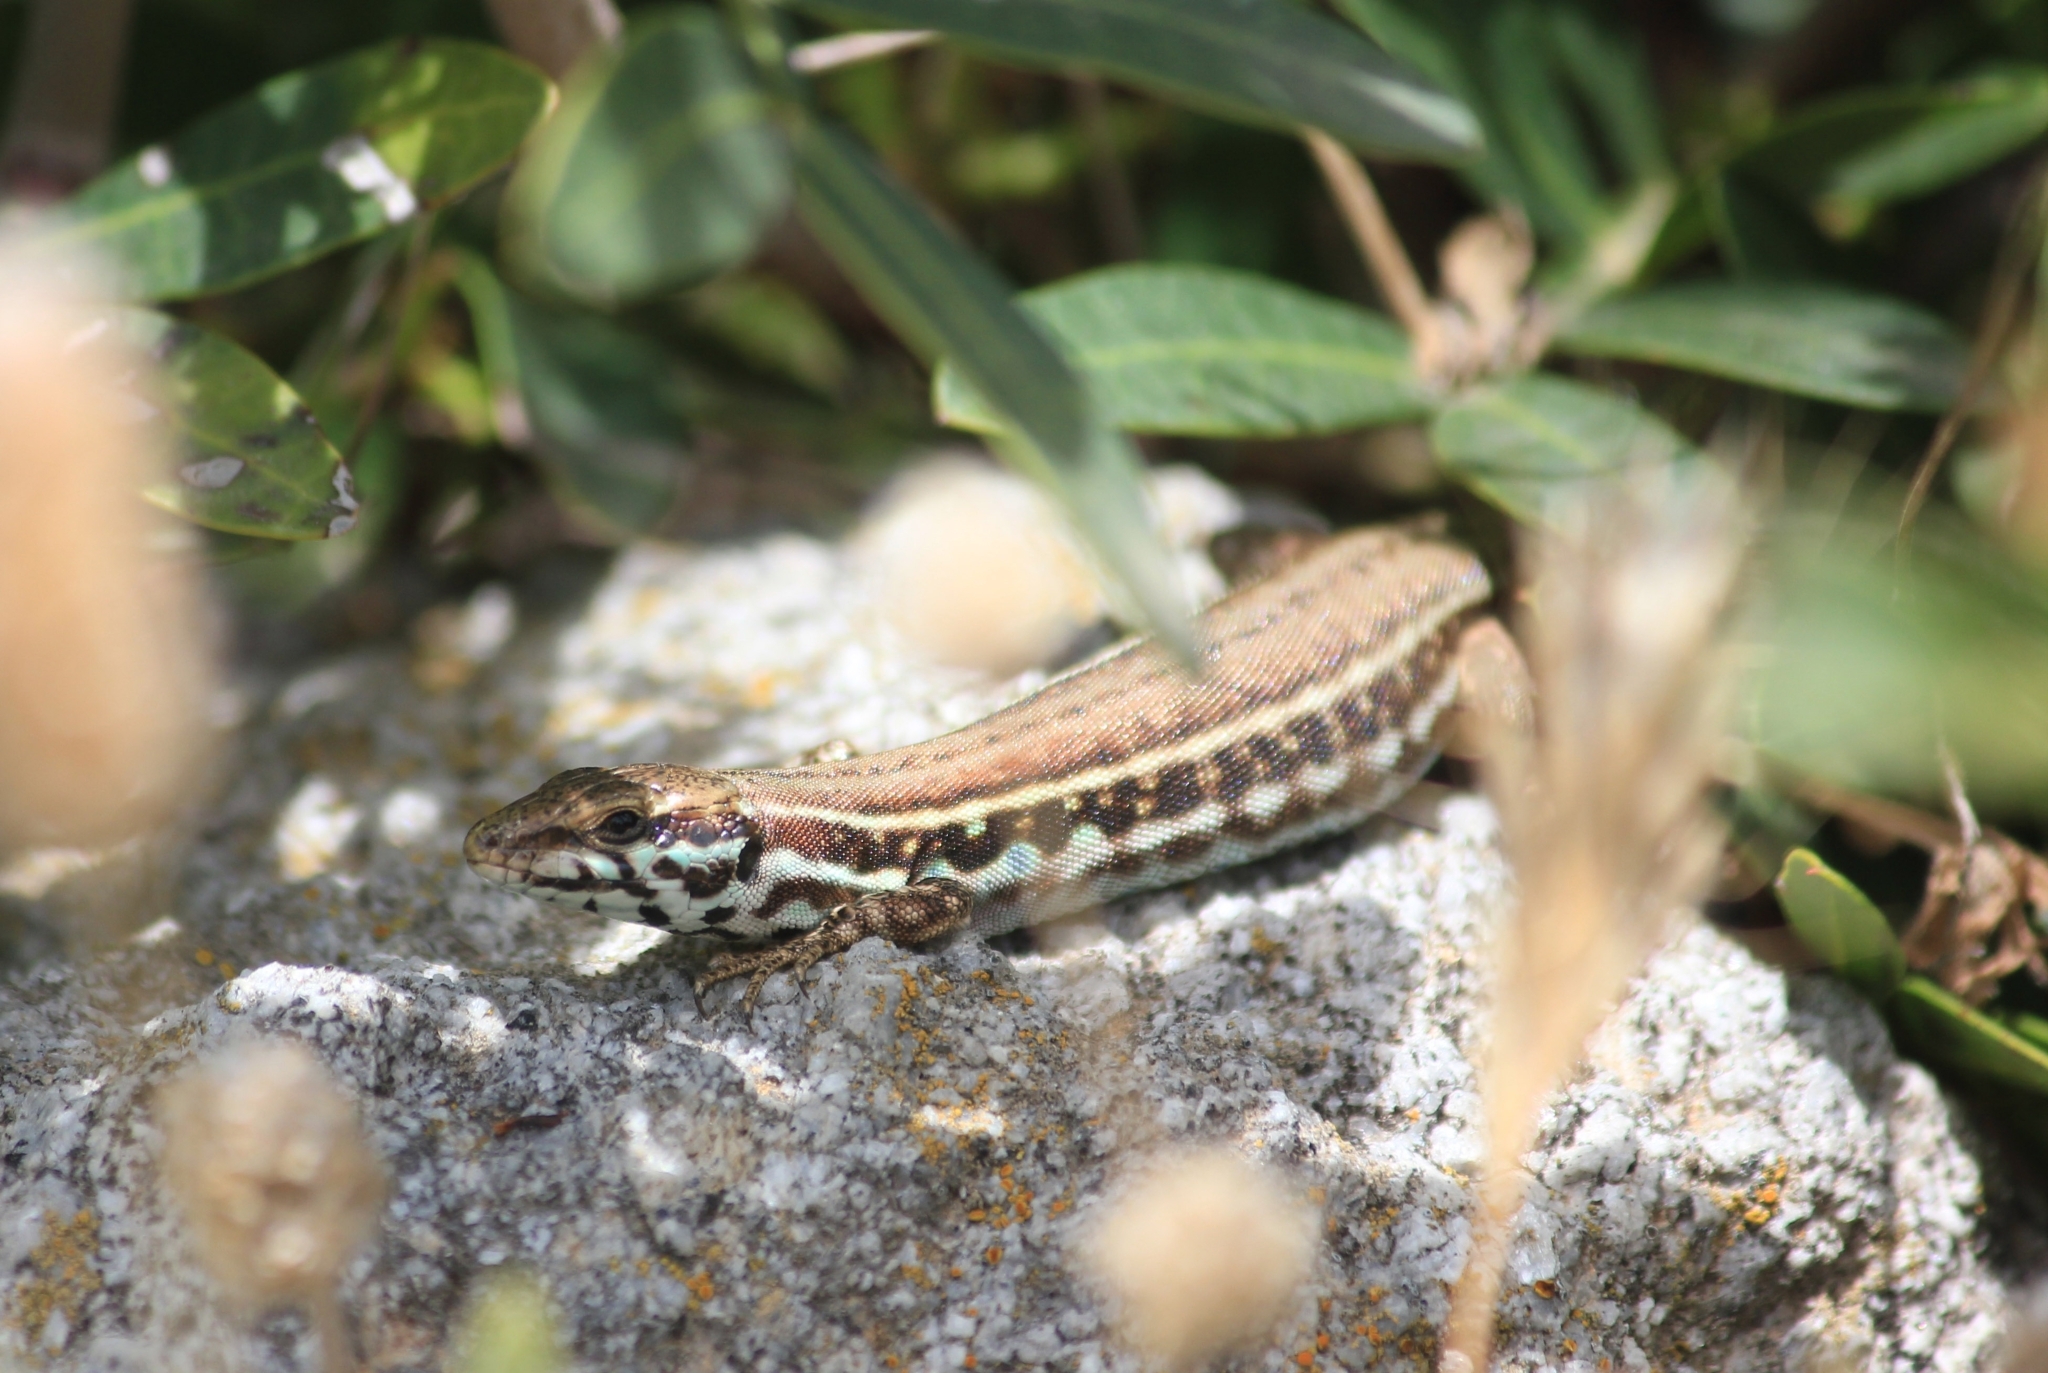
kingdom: Animalia
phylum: Chordata
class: Squamata
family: Lacertidae
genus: Podarcis
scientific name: Podarcis milensis
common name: Milos wall lizard
